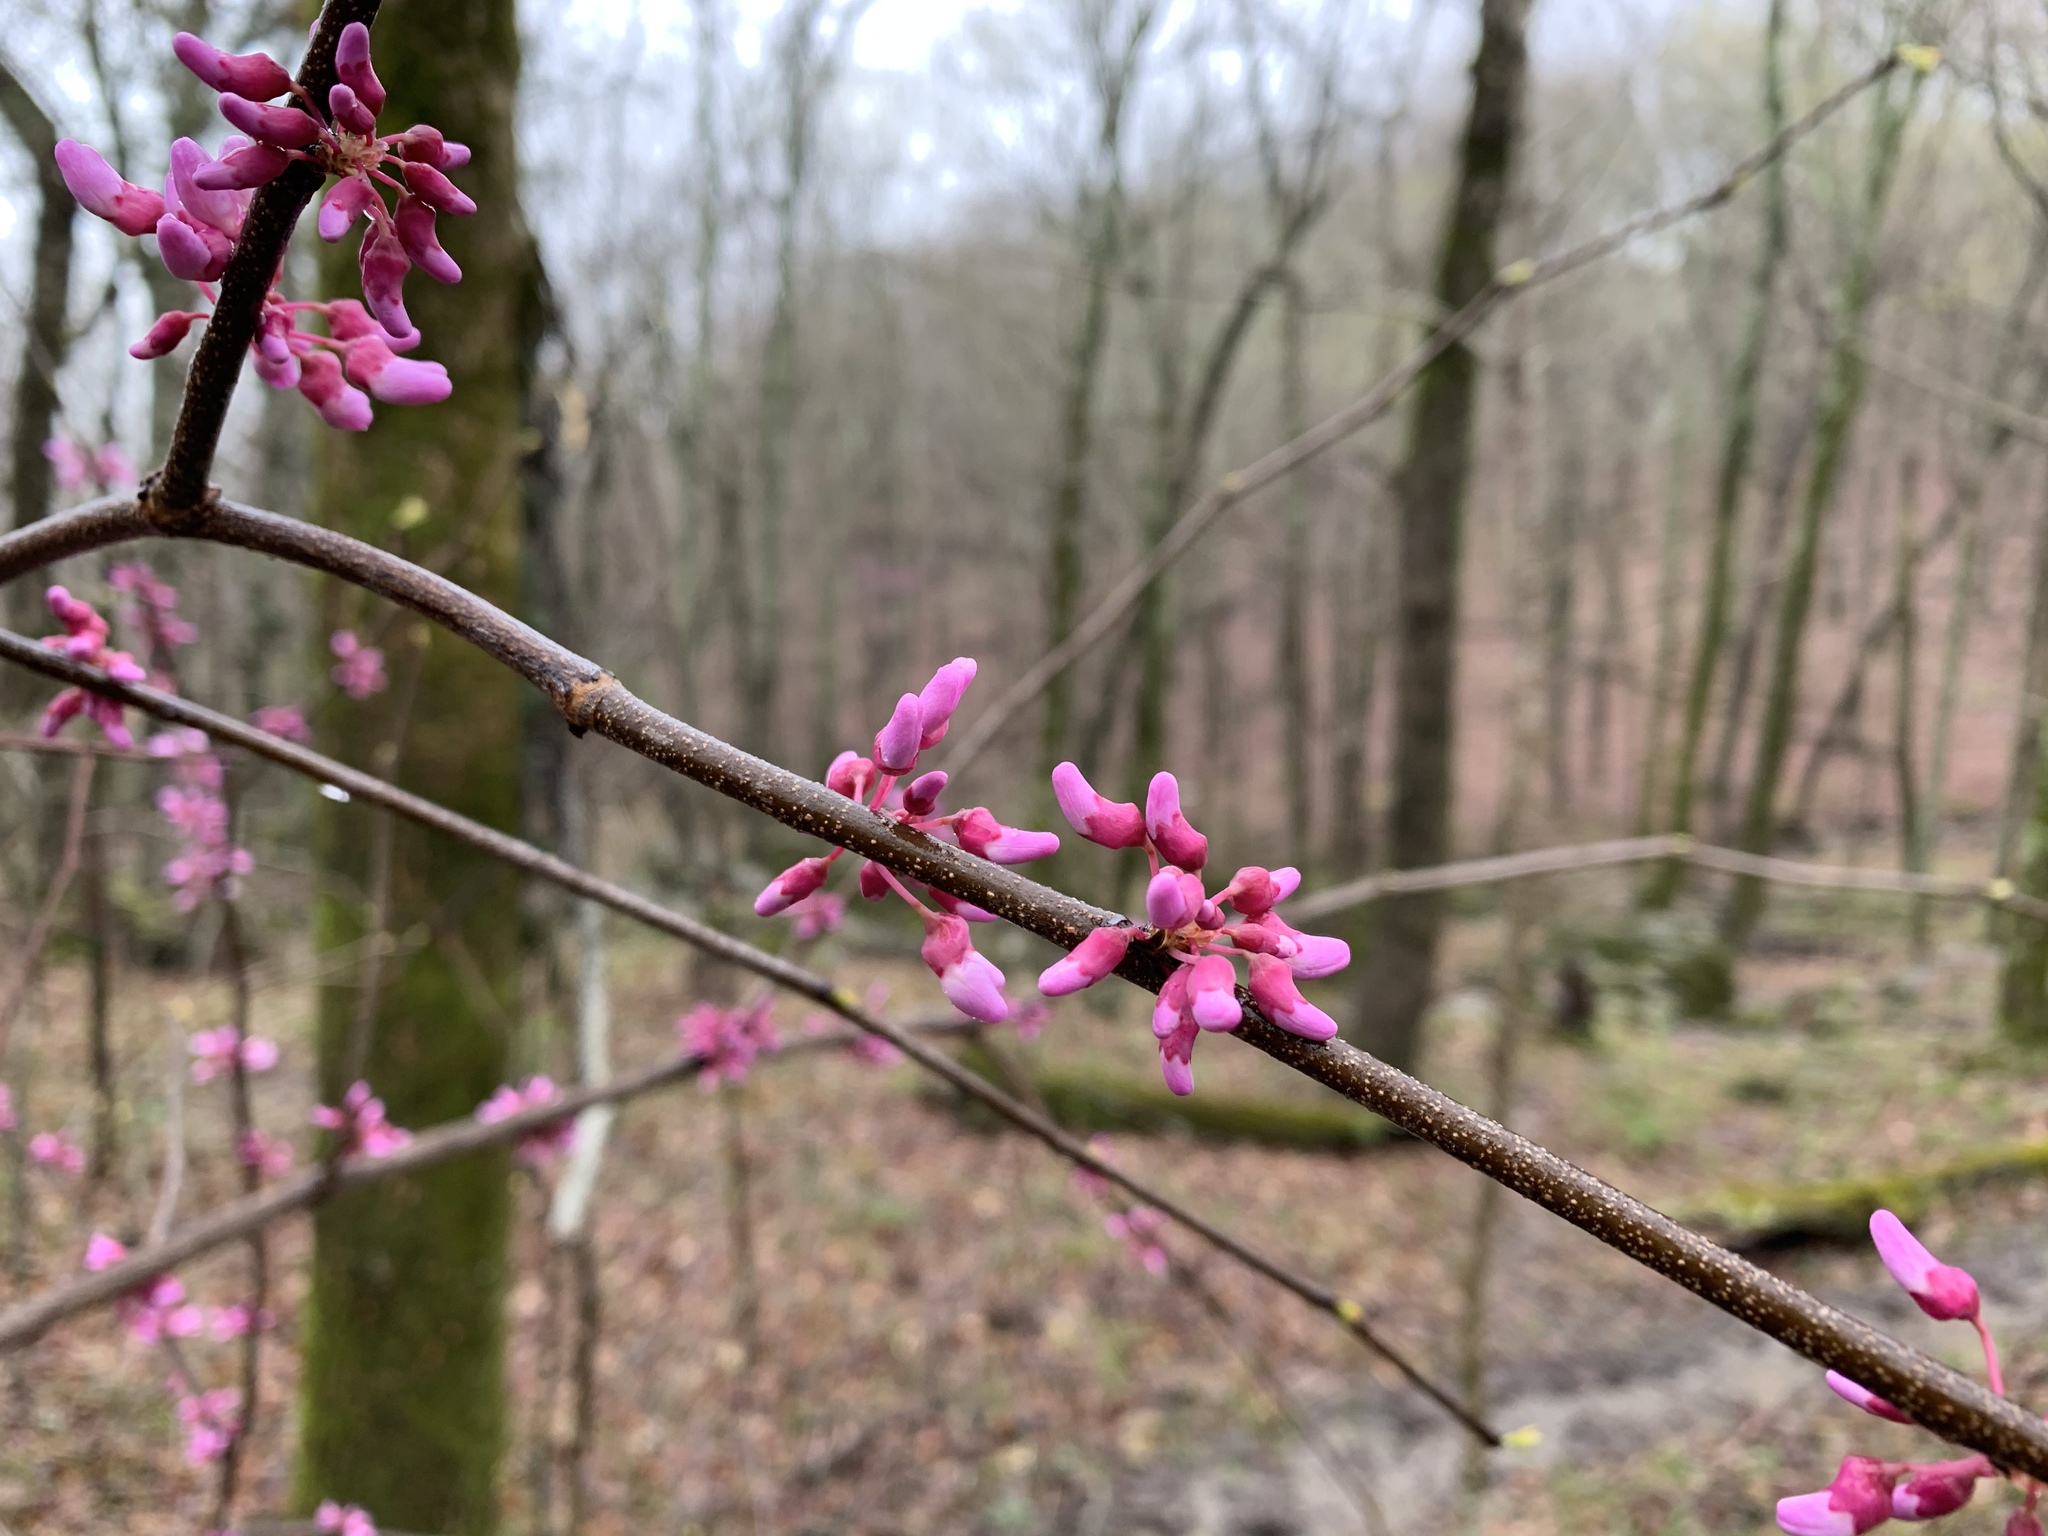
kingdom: Plantae
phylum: Tracheophyta
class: Magnoliopsida
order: Fabales
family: Fabaceae
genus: Cercis
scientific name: Cercis canadensis
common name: Eastern redbud
